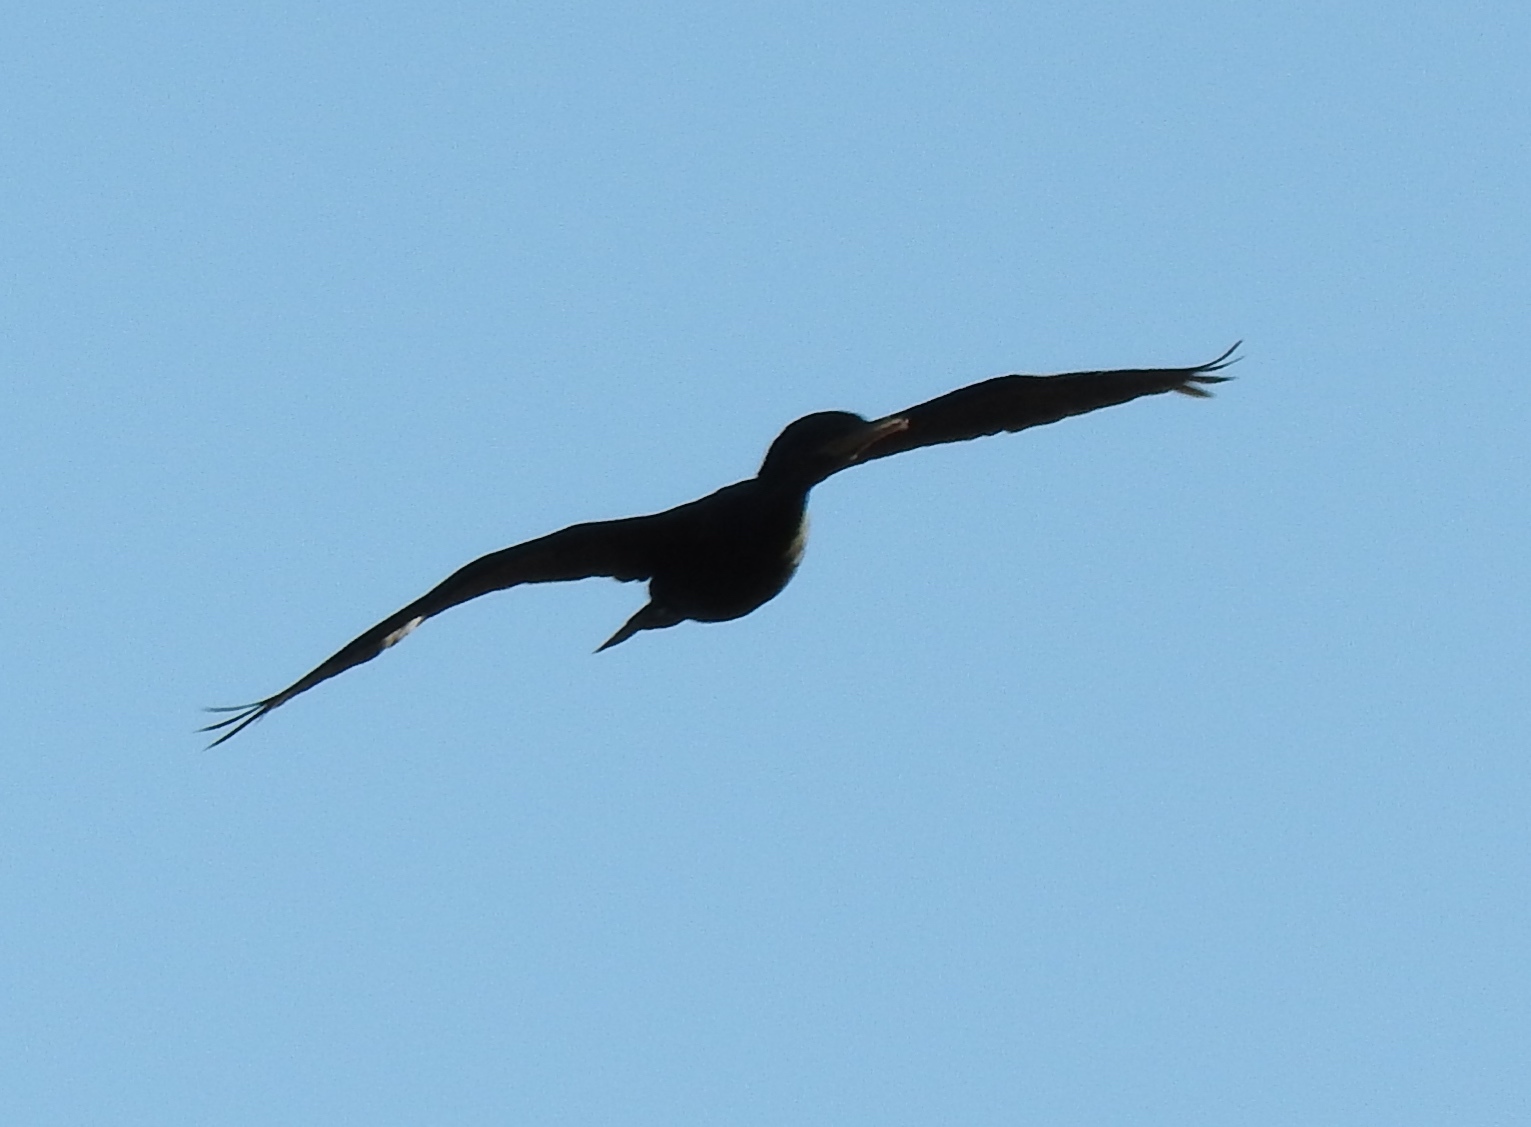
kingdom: Animalia
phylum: Chordata
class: Aves
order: Suliformes
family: Phalacrocoracidae
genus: Phalacrocorax
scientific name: Phalacrocorax brasilianus
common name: Neotropic cormorant
